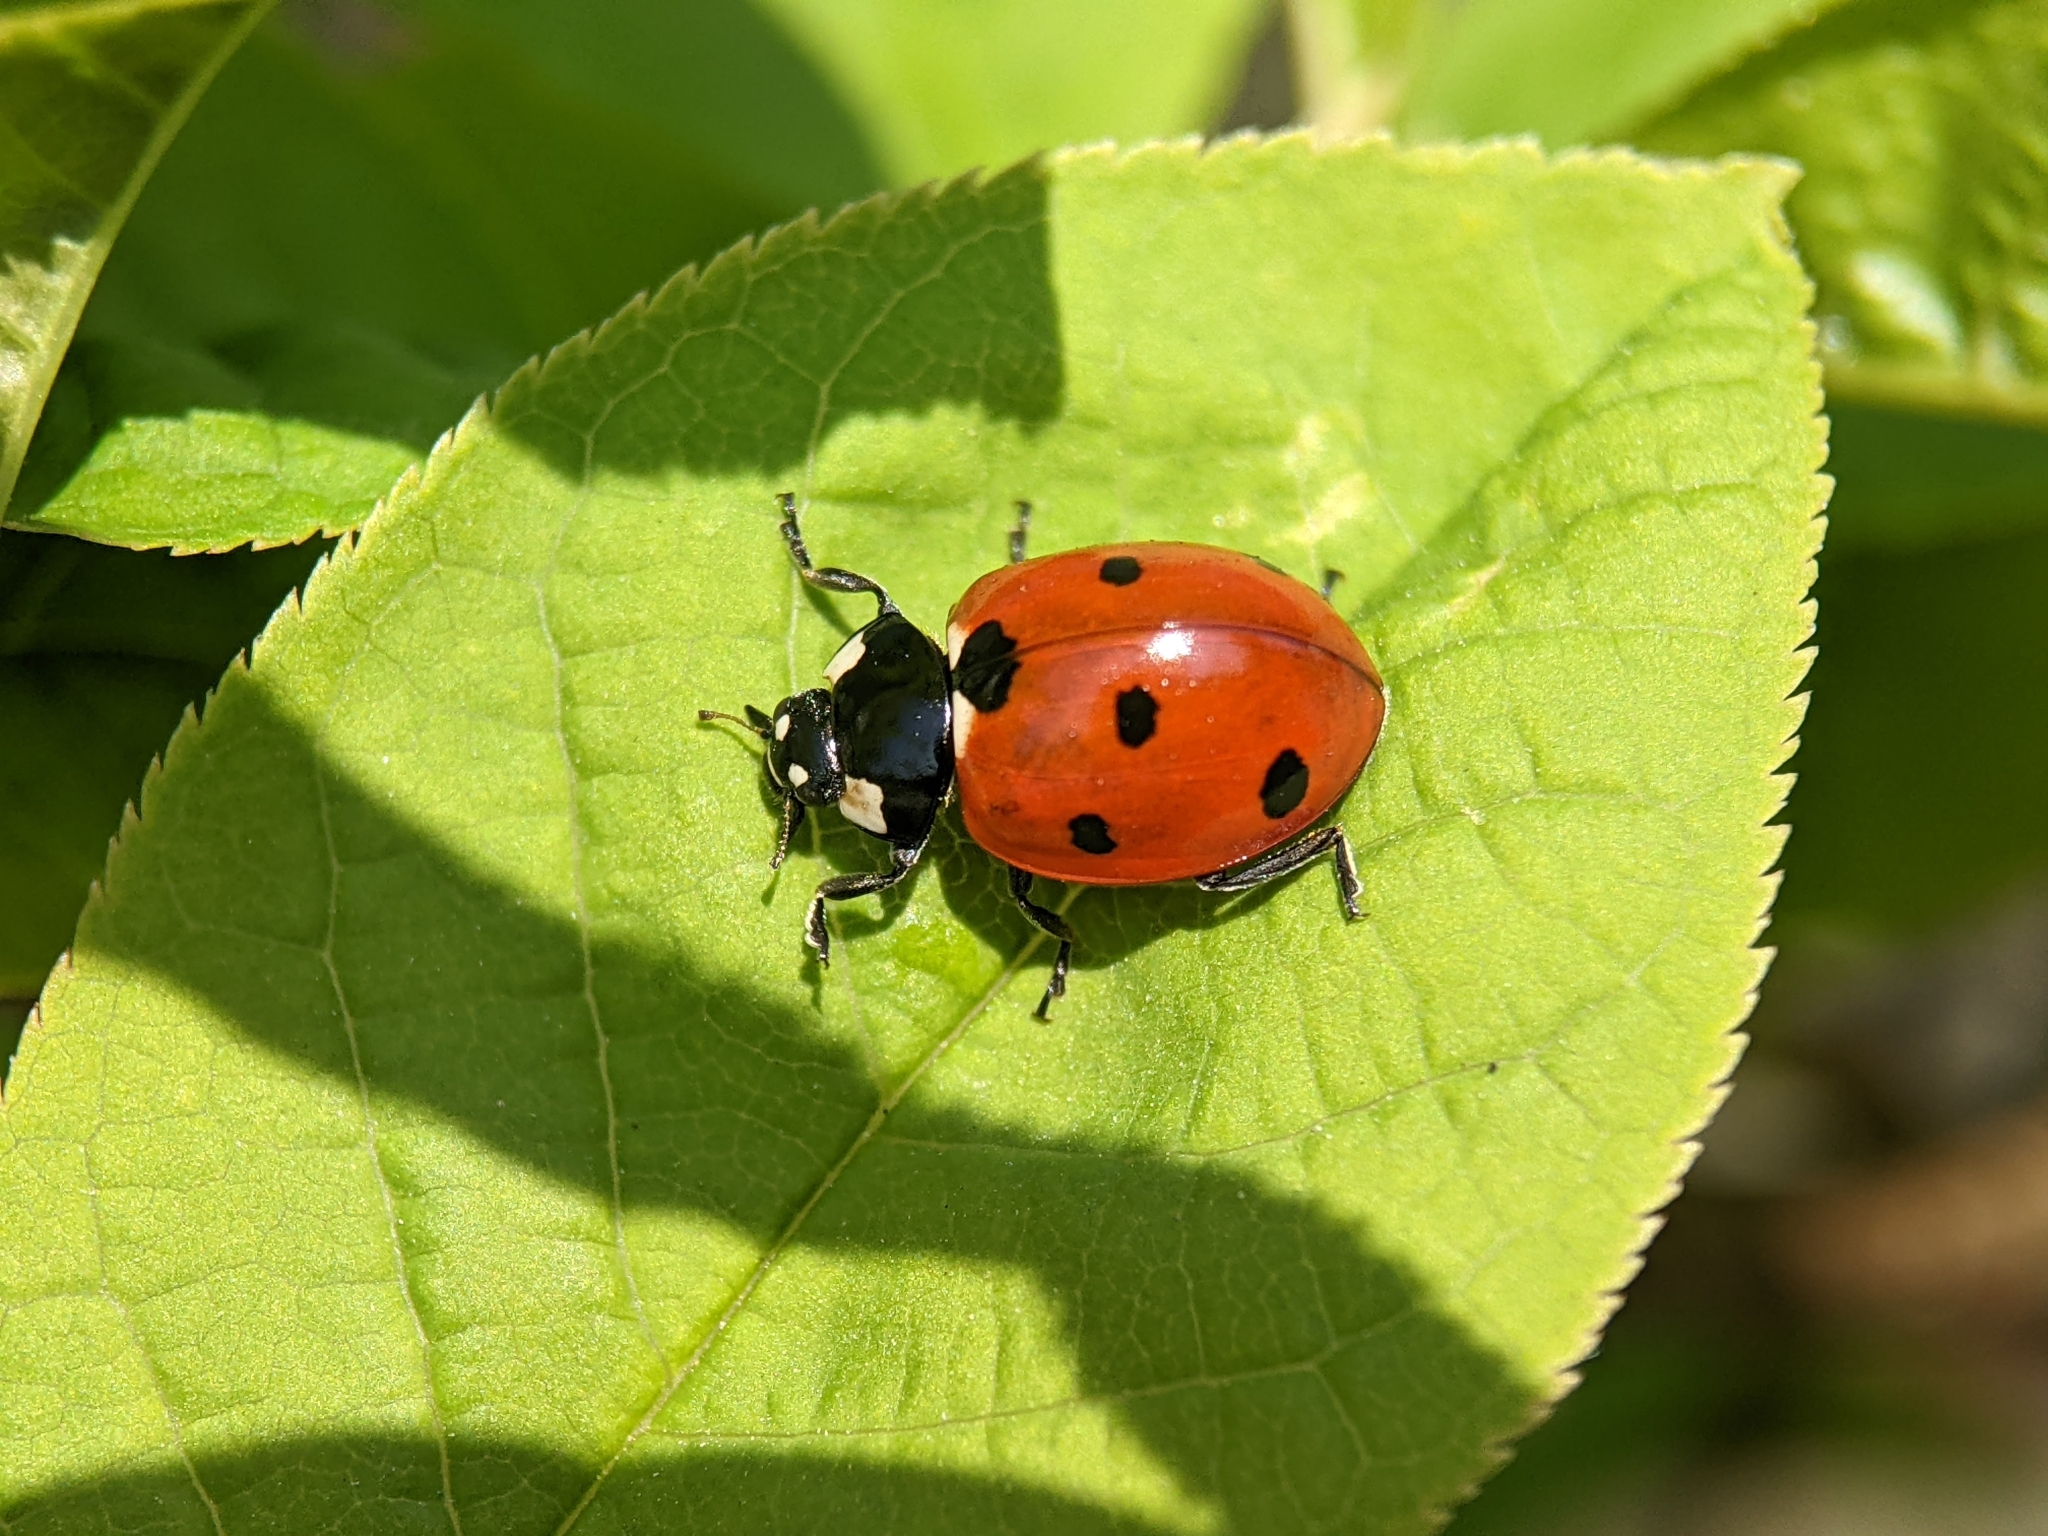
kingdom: Animalia
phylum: Arthropoda
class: Insecta
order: Coleoptera
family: Coccinellidae
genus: Coccinella
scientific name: Coccinella septempunctata
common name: Sevenspotted lady beetle
